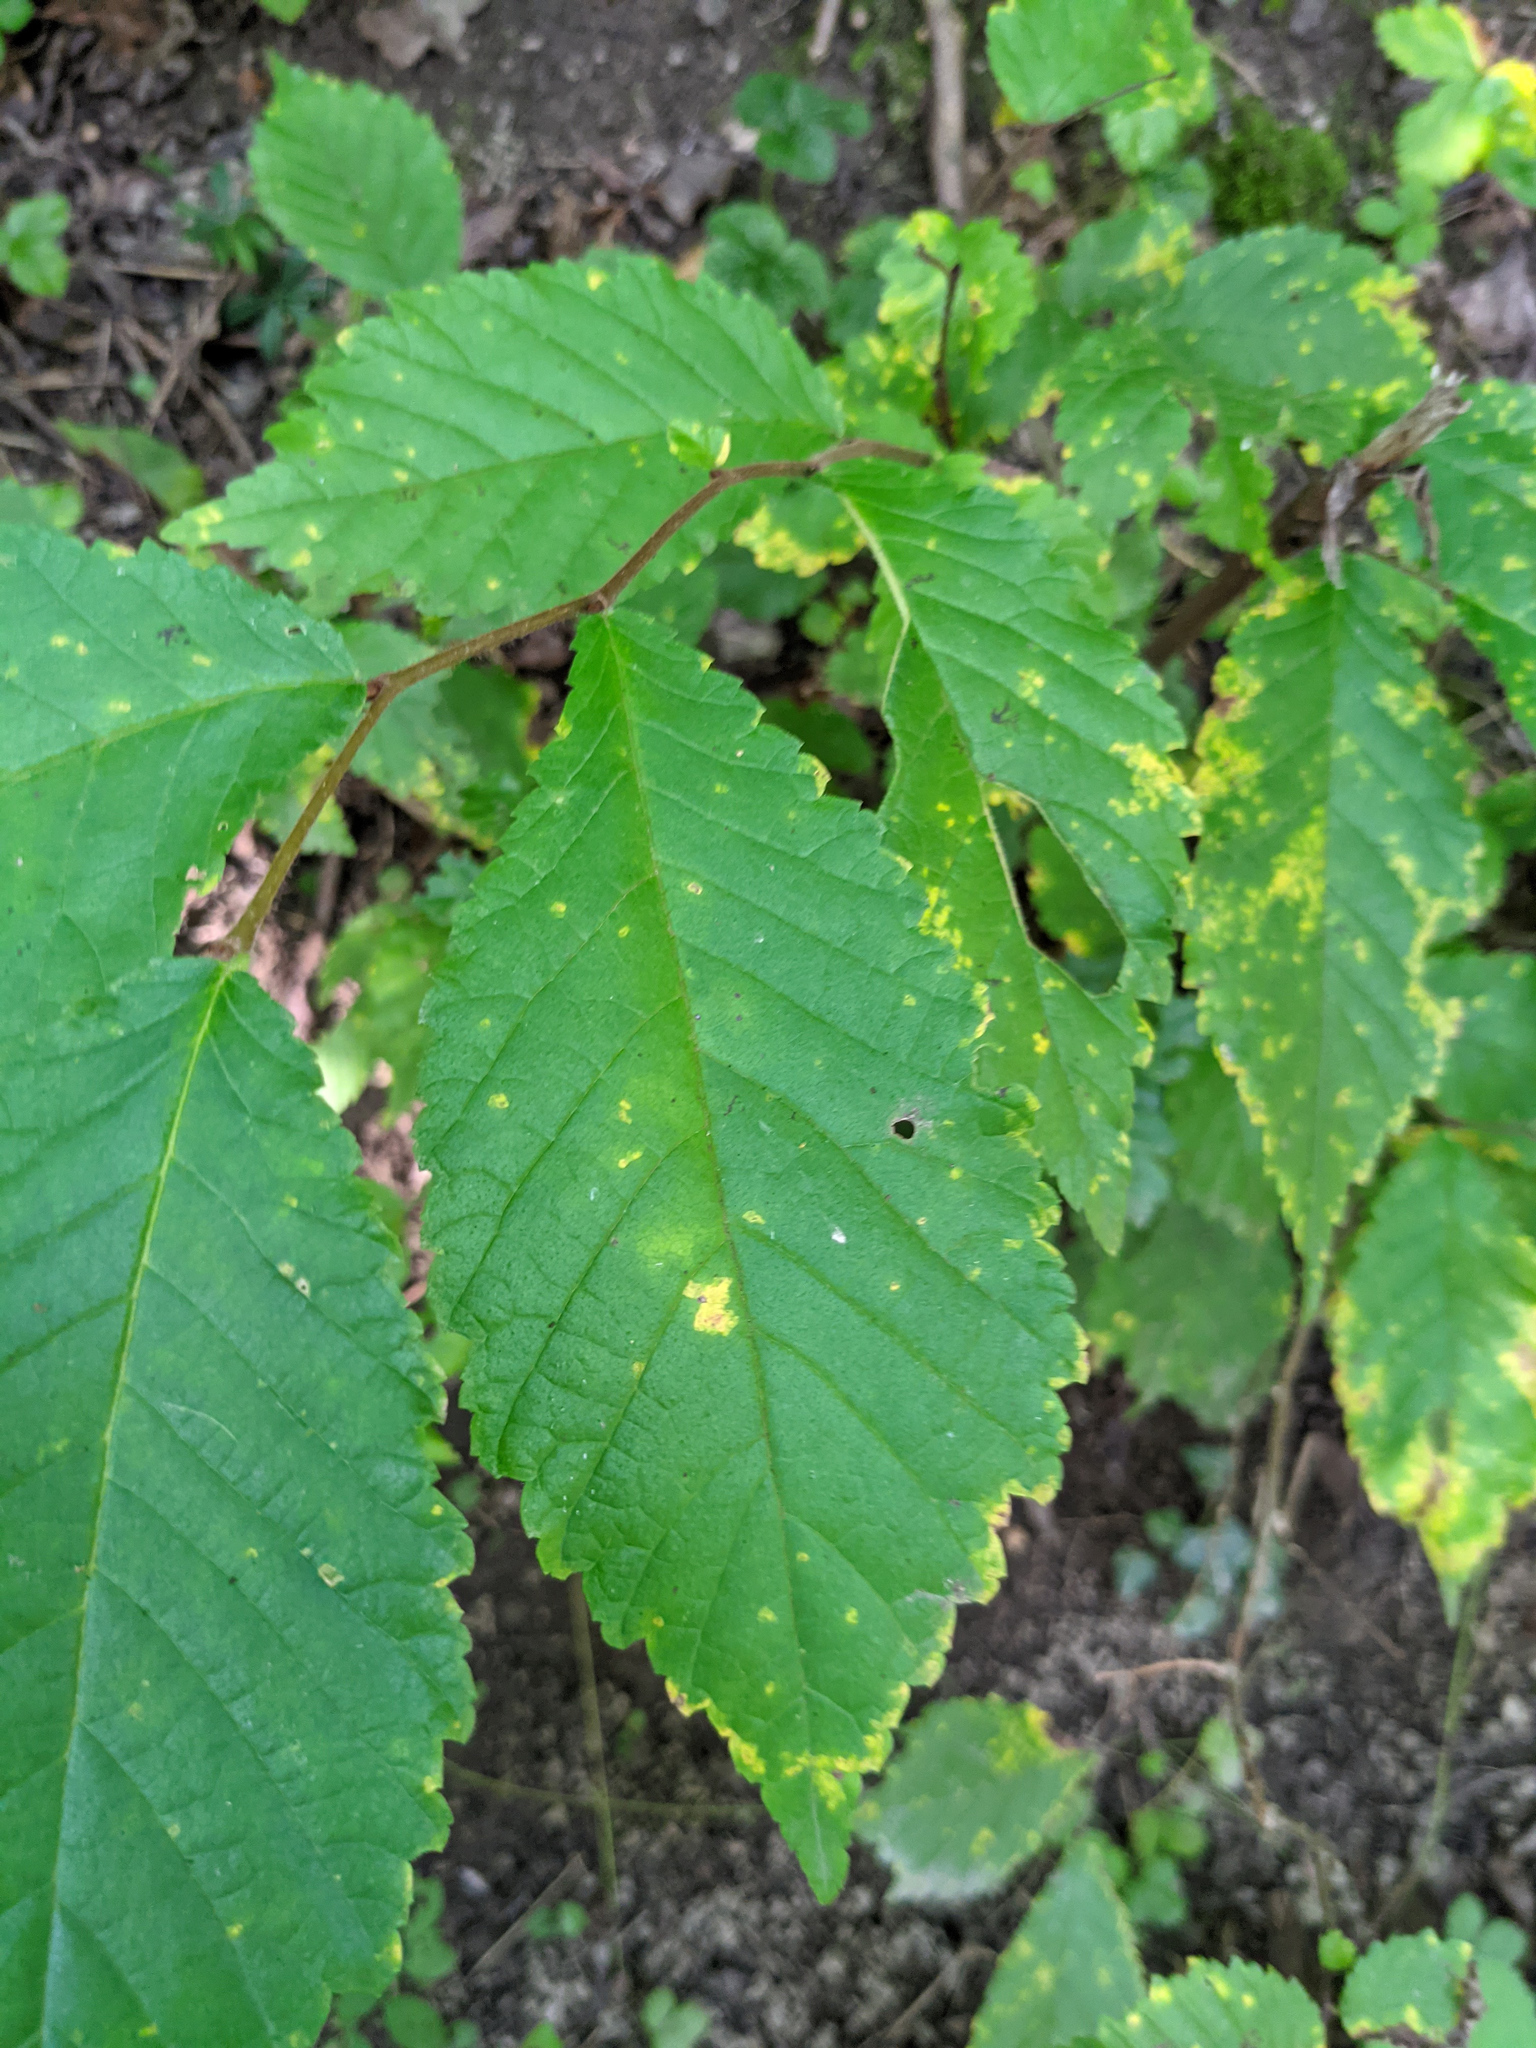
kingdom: Plantae
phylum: Tracheophyta
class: Magnoliopsida
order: Rosales
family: Ulmaceae
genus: Ulmus
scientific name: Ulmus glabra
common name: Wych elm
